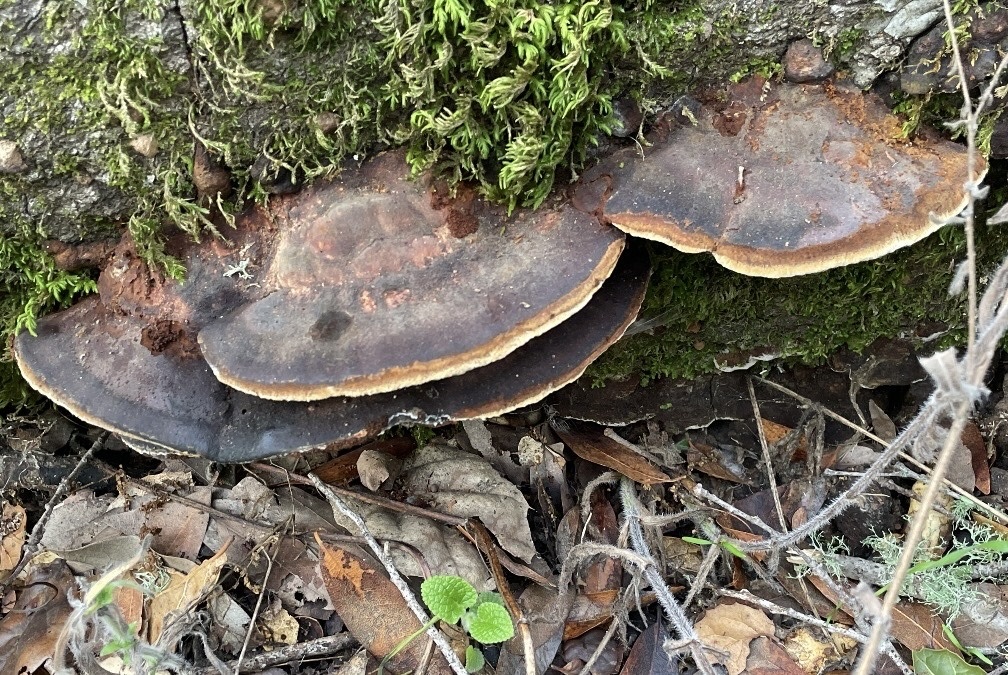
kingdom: Fungi
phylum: Basidiomycota
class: Agaricomycetes
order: Hymenochaetales
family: Hymenochaetaceae
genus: Phellinus
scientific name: Phellinus gilvus
